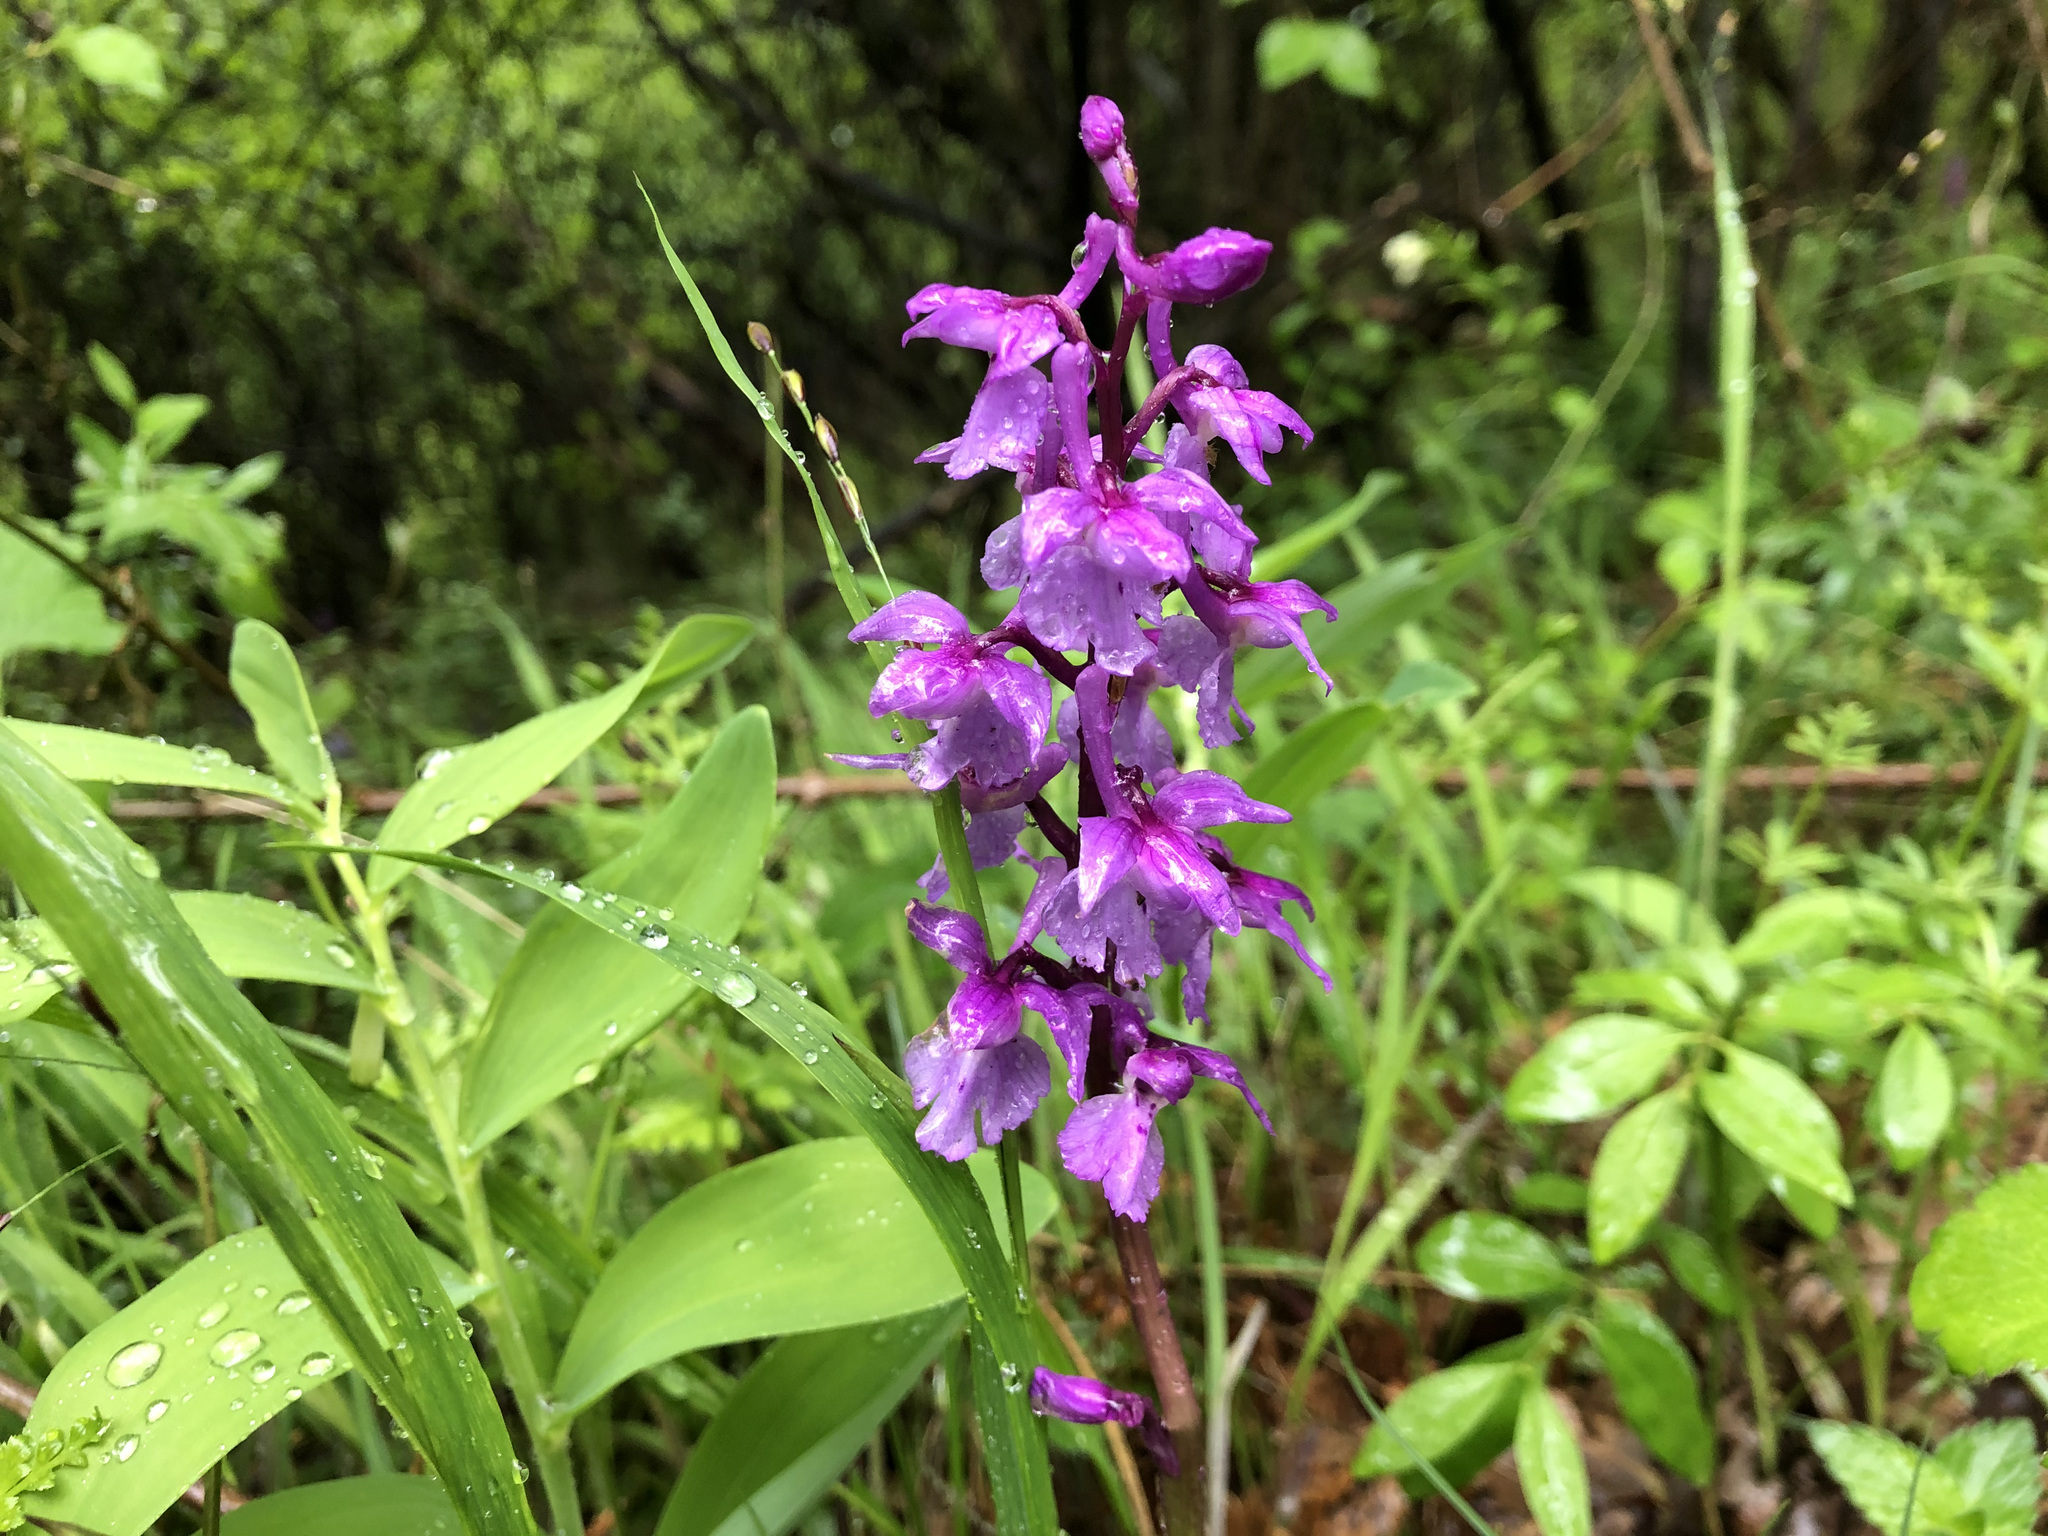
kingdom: Plantae
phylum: Tracheophyta
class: Liliopsida
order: Asparagales
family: Orchidaceae
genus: Orchis
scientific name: Orchis mascula
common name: Early-purple orchid
